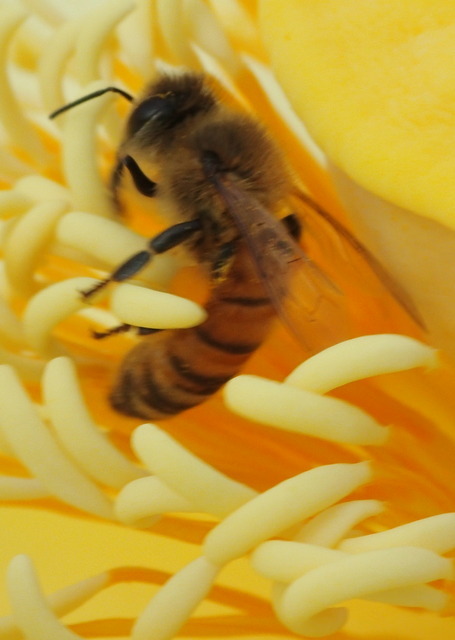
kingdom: Animalia
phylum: Arthropoda
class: Insecta
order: Hymenoptera
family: Apidae
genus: Apis
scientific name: Apis mellifera
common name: Honey bee
